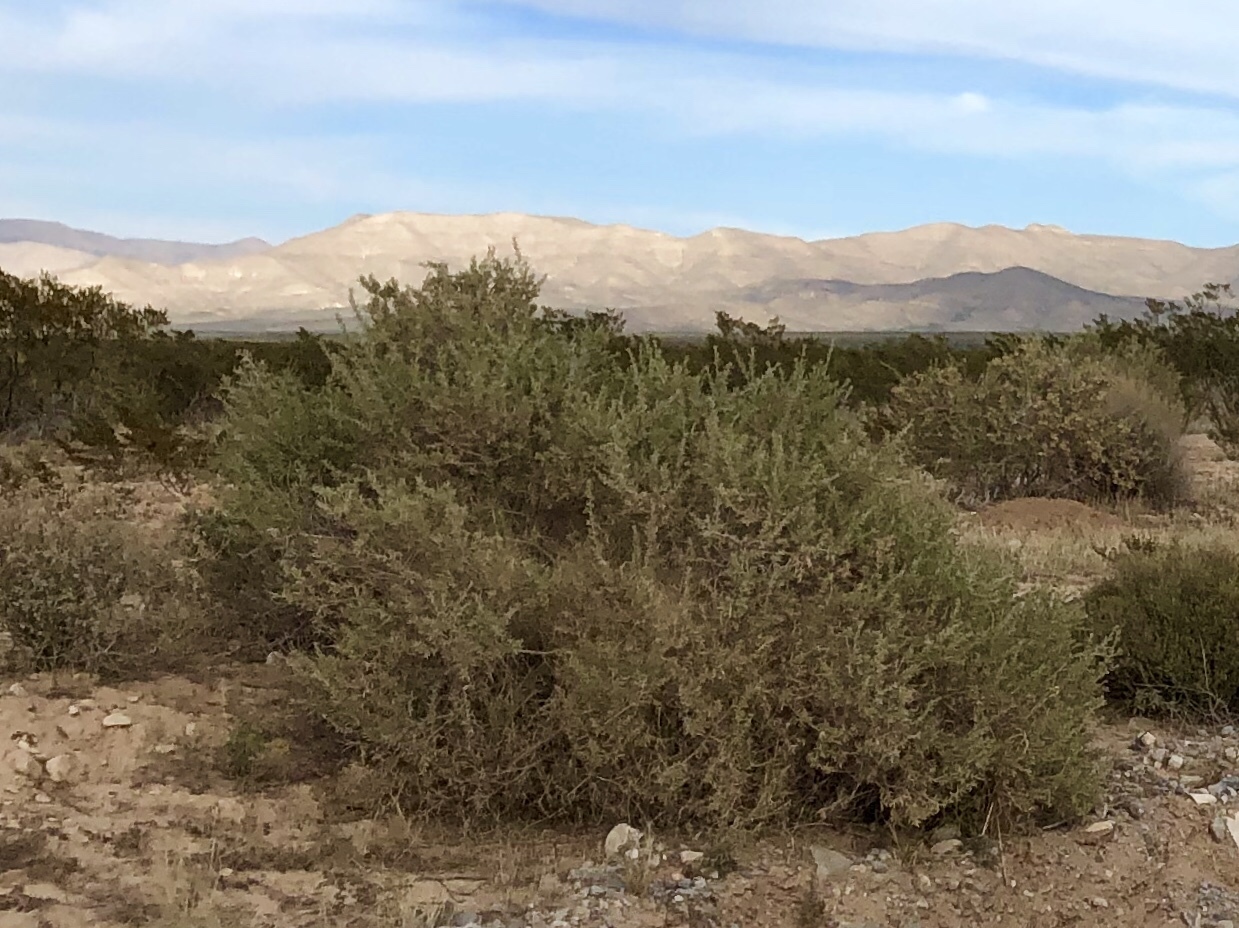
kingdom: Plantae
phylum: Tracheophyta
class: Magnoliopsida
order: Caryophyllales
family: Amaranthaceae
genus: Atriplex
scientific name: Atriplex canescens
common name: Four-wing saltbush
